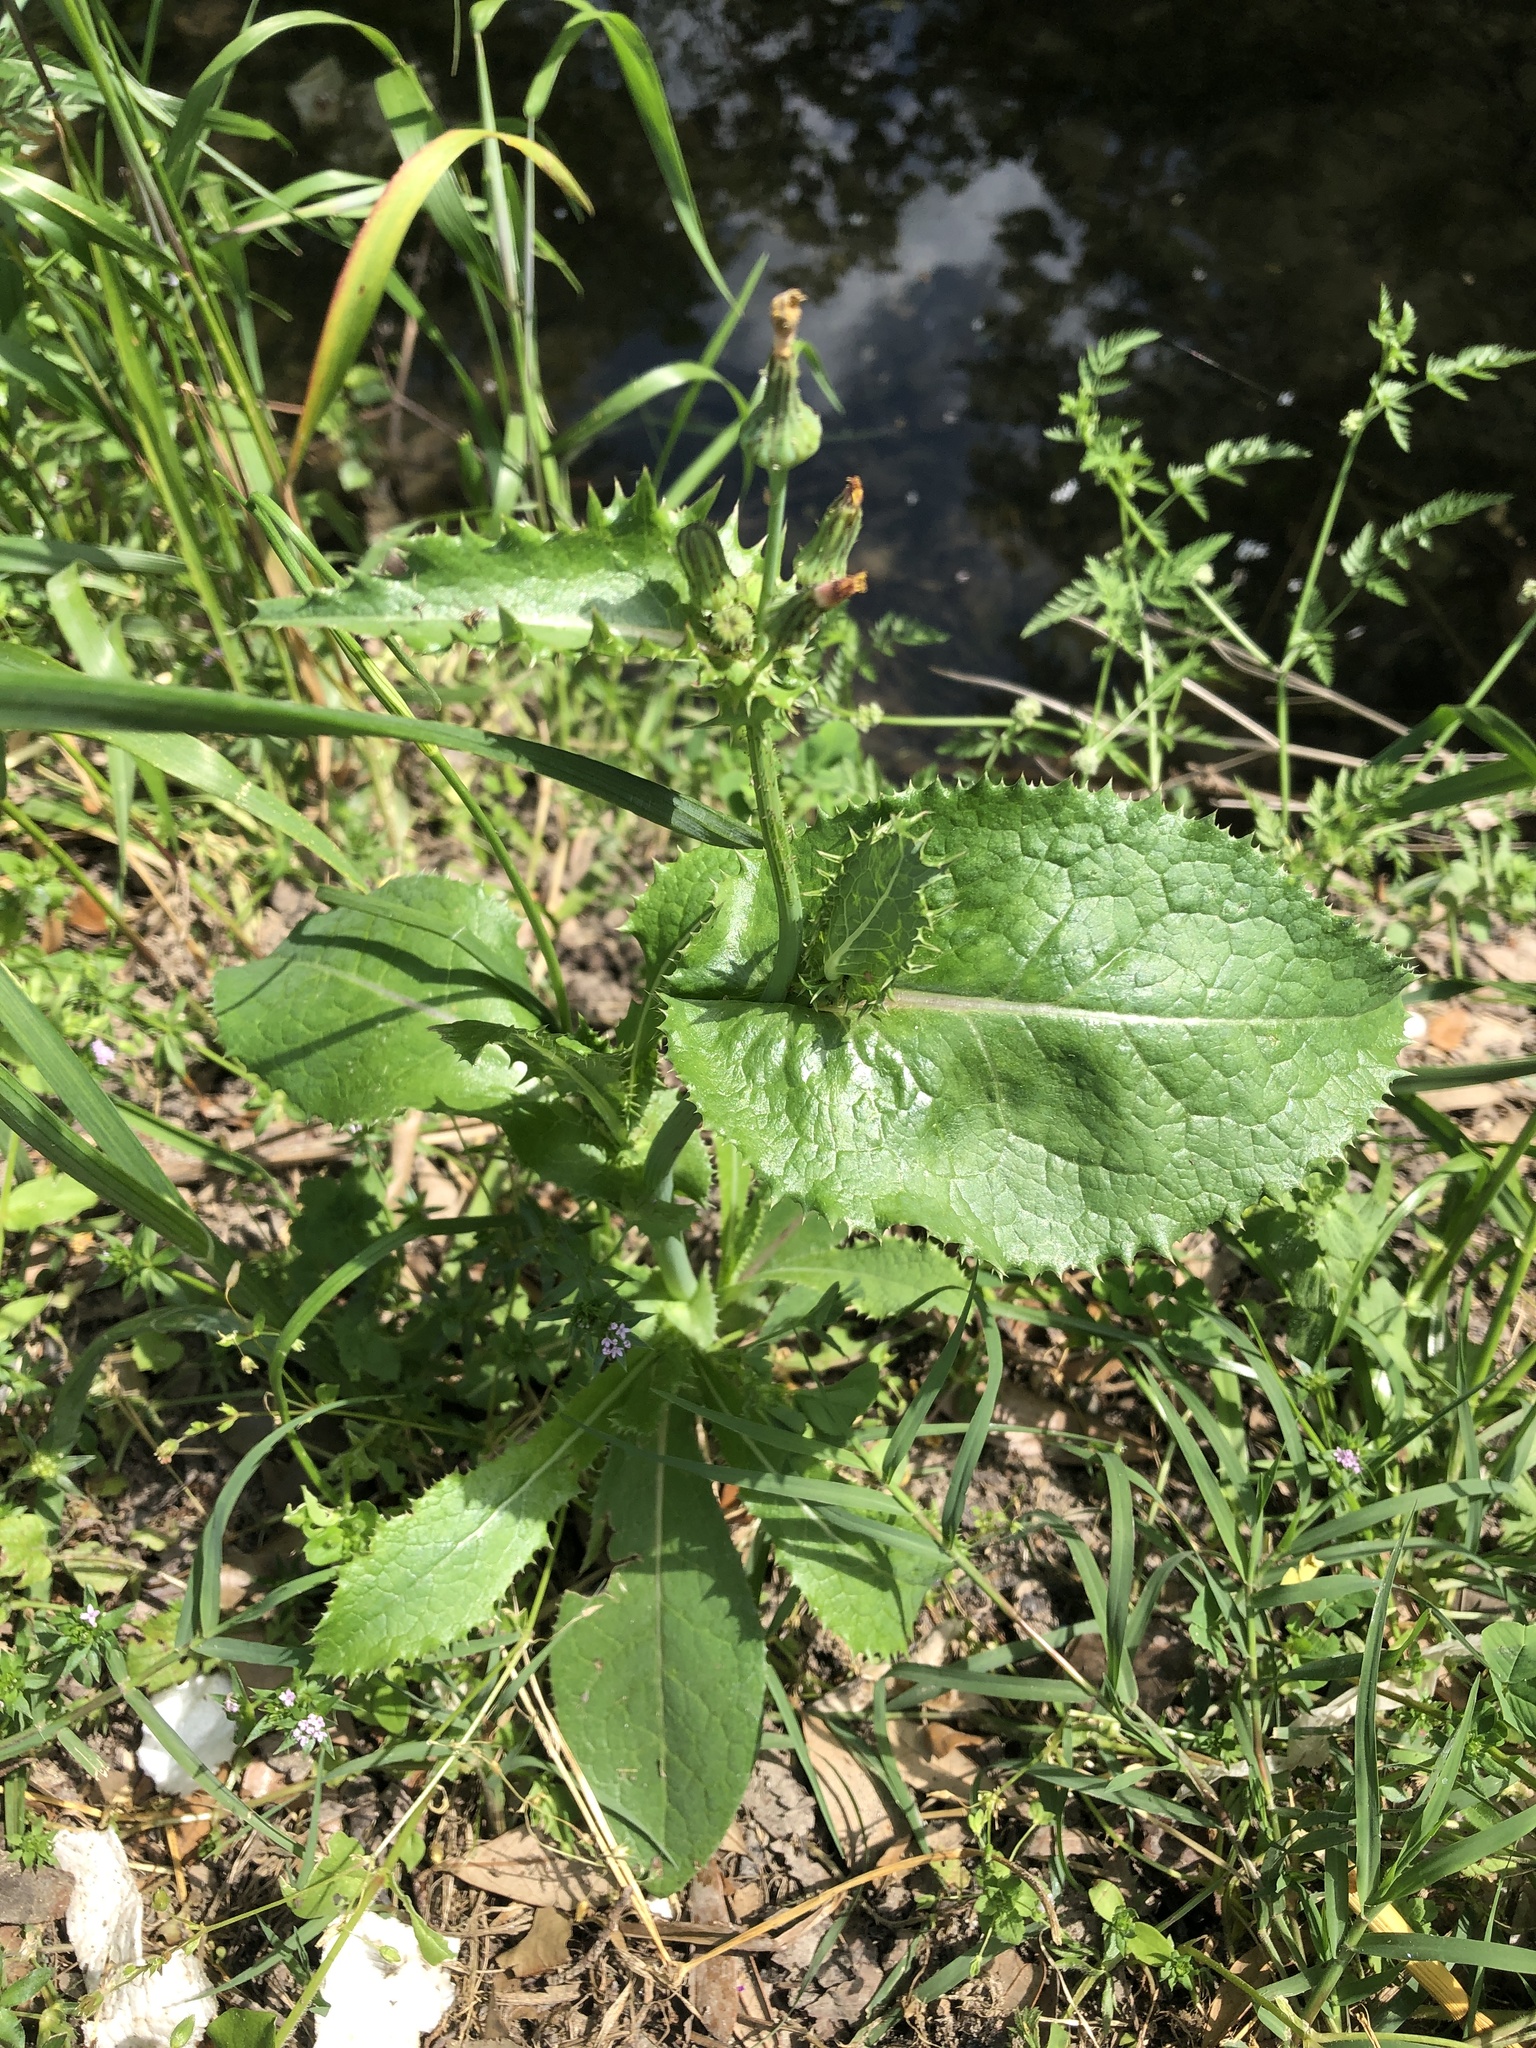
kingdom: Plantae
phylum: Tracheophyta
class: Magnoliopsida
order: Asterales
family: Asteraceae
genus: Sonchus
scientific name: Sonchus asper
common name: Prickly sow-thistle
